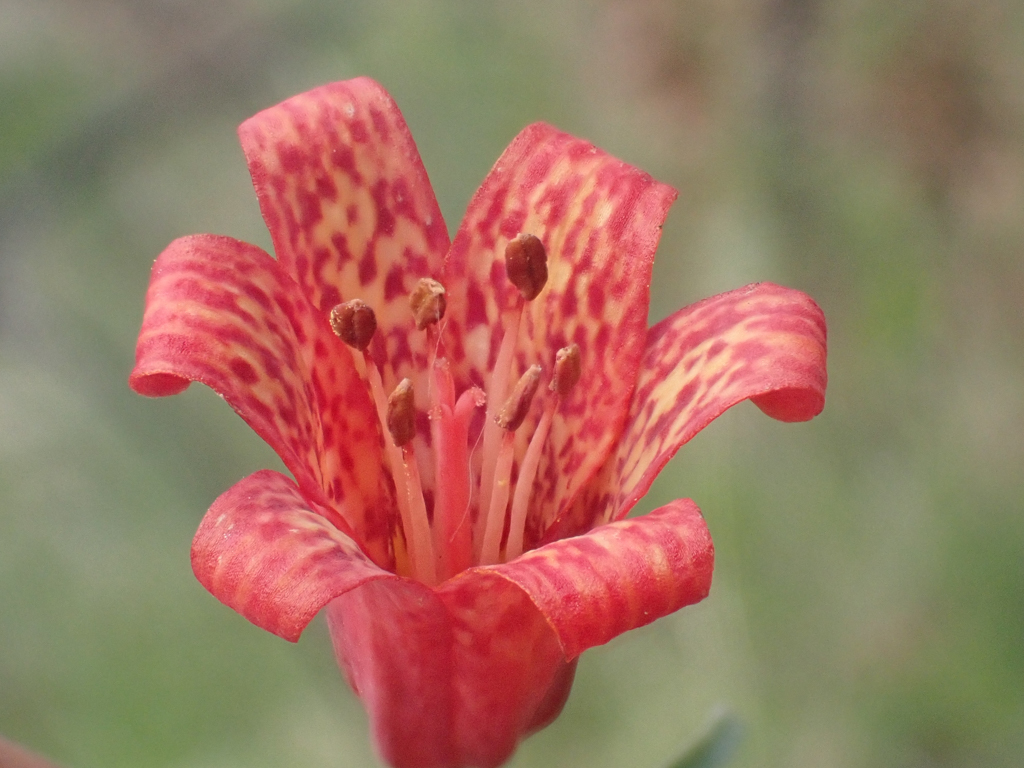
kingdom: Plantae
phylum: Tracheophyta
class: Liliopsida
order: Liliales
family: Liliaceae
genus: Fritillaria
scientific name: Fritillaria recurva
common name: Scarlet fritillary
